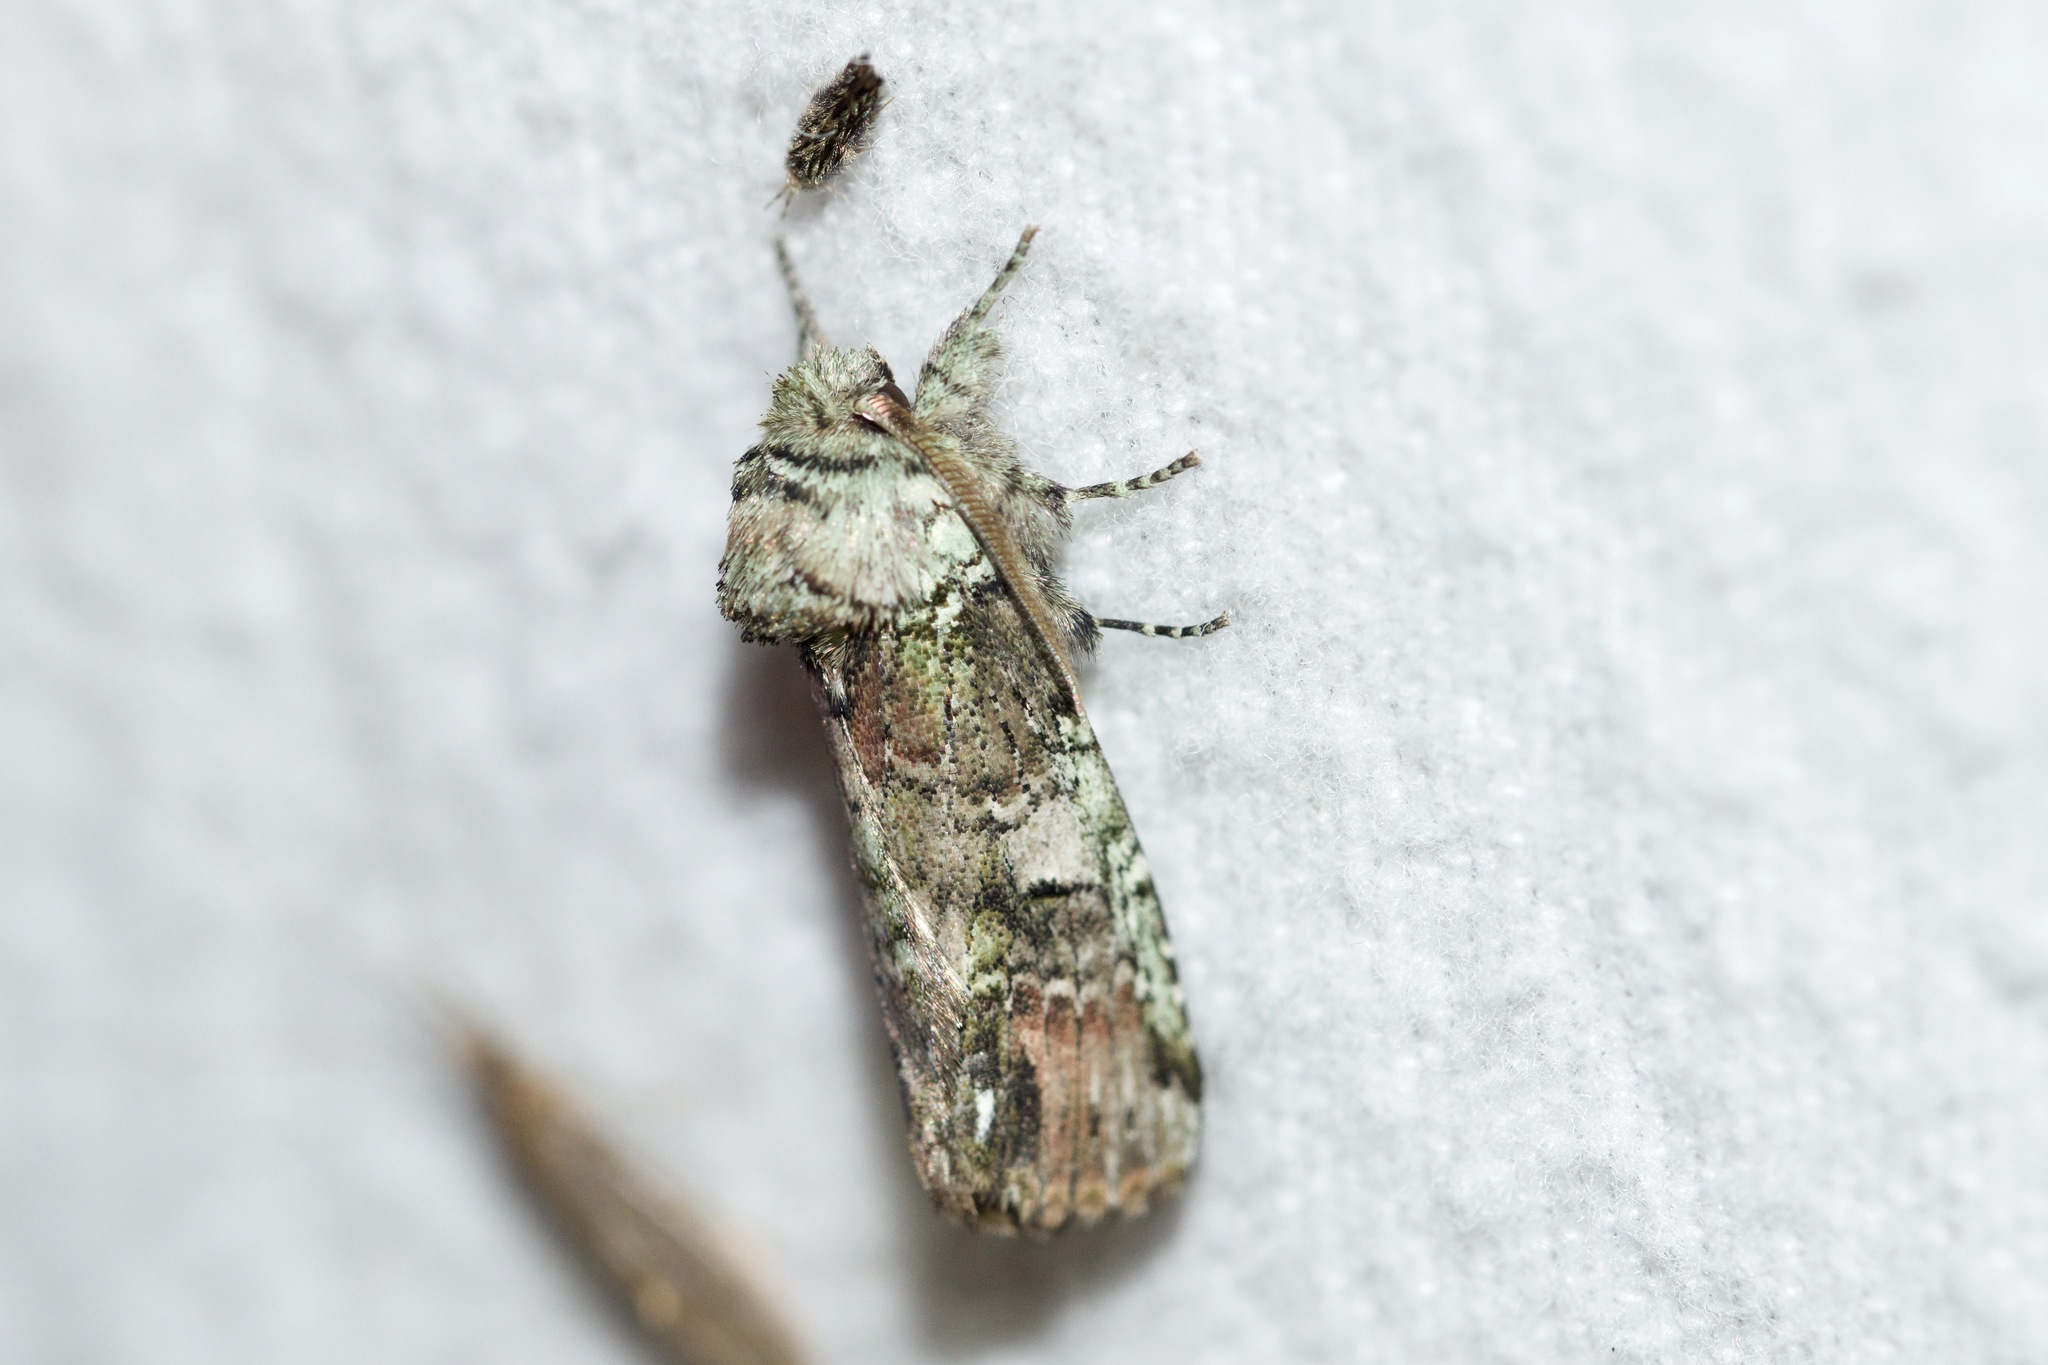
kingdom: Animalia
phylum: Arthropoda
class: Insecta
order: Lepidoptera
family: Notodontidae
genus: Schizura
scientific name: Schizura
